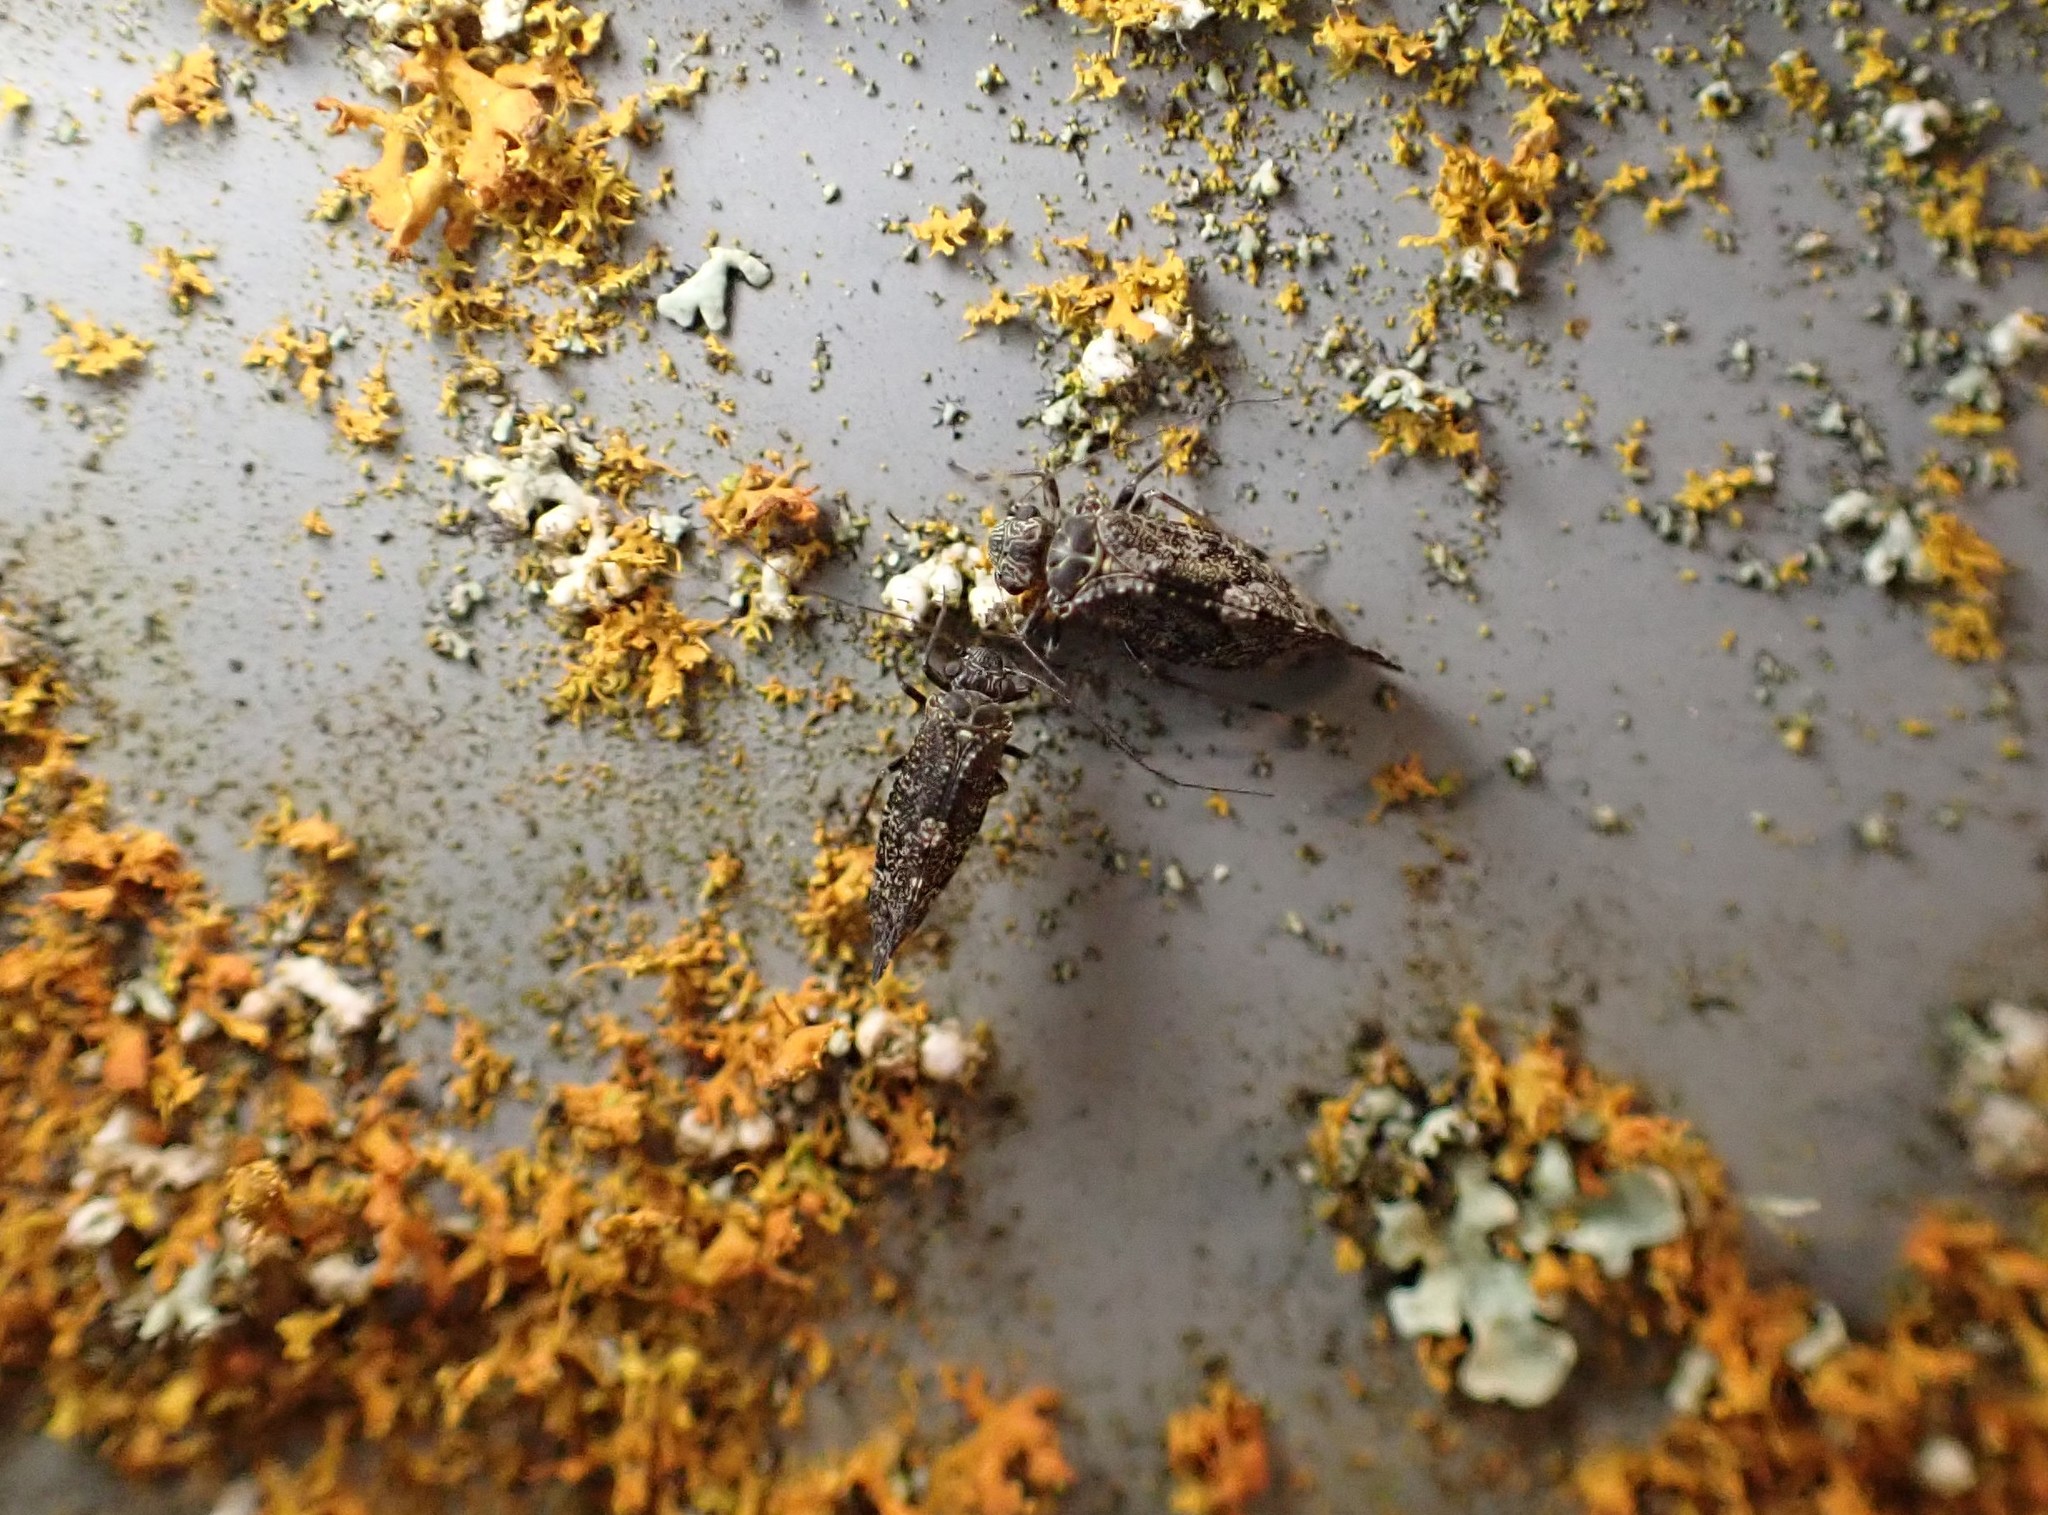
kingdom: Animalia
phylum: Arthropoda
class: Insecta
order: Psocodea
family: Myopsocidae
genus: Nimbopsocus
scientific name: Nimbopsocus australis
